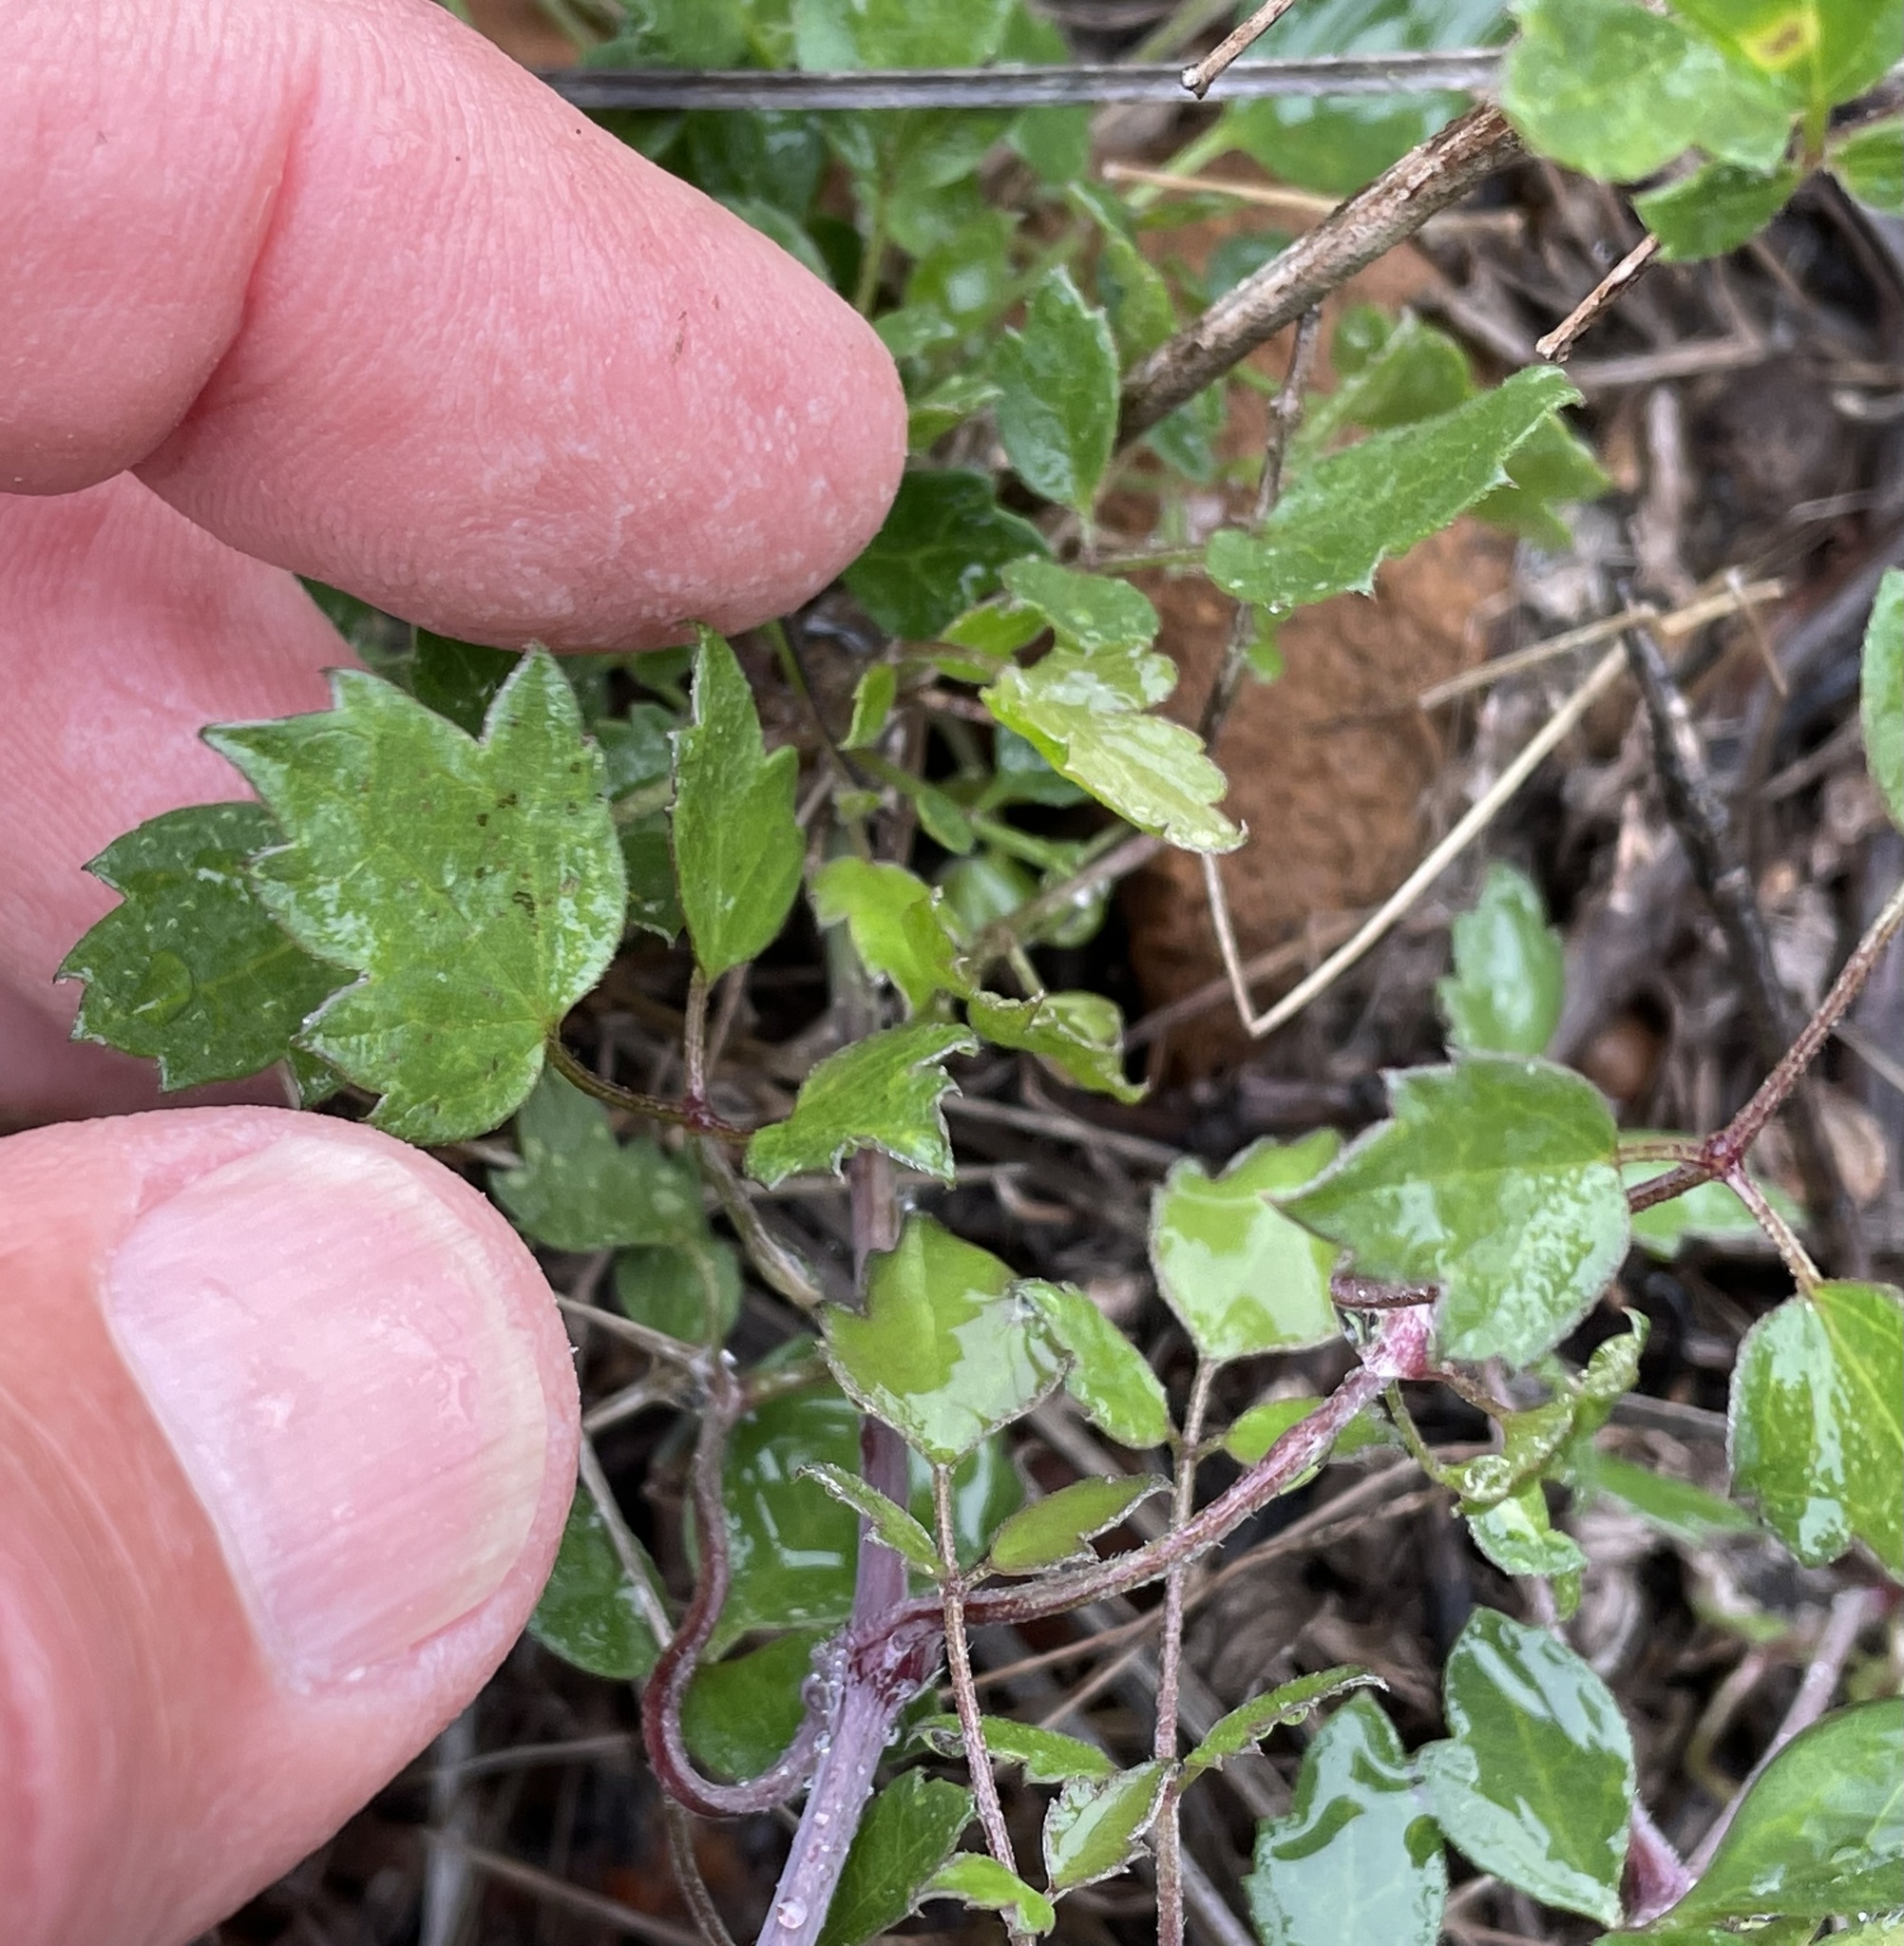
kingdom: Plantae
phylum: Tracheophyta
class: Magnoliopsida
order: Ranunculales
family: Ranunculaceae
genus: Clematis
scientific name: Clematis pauciflora
